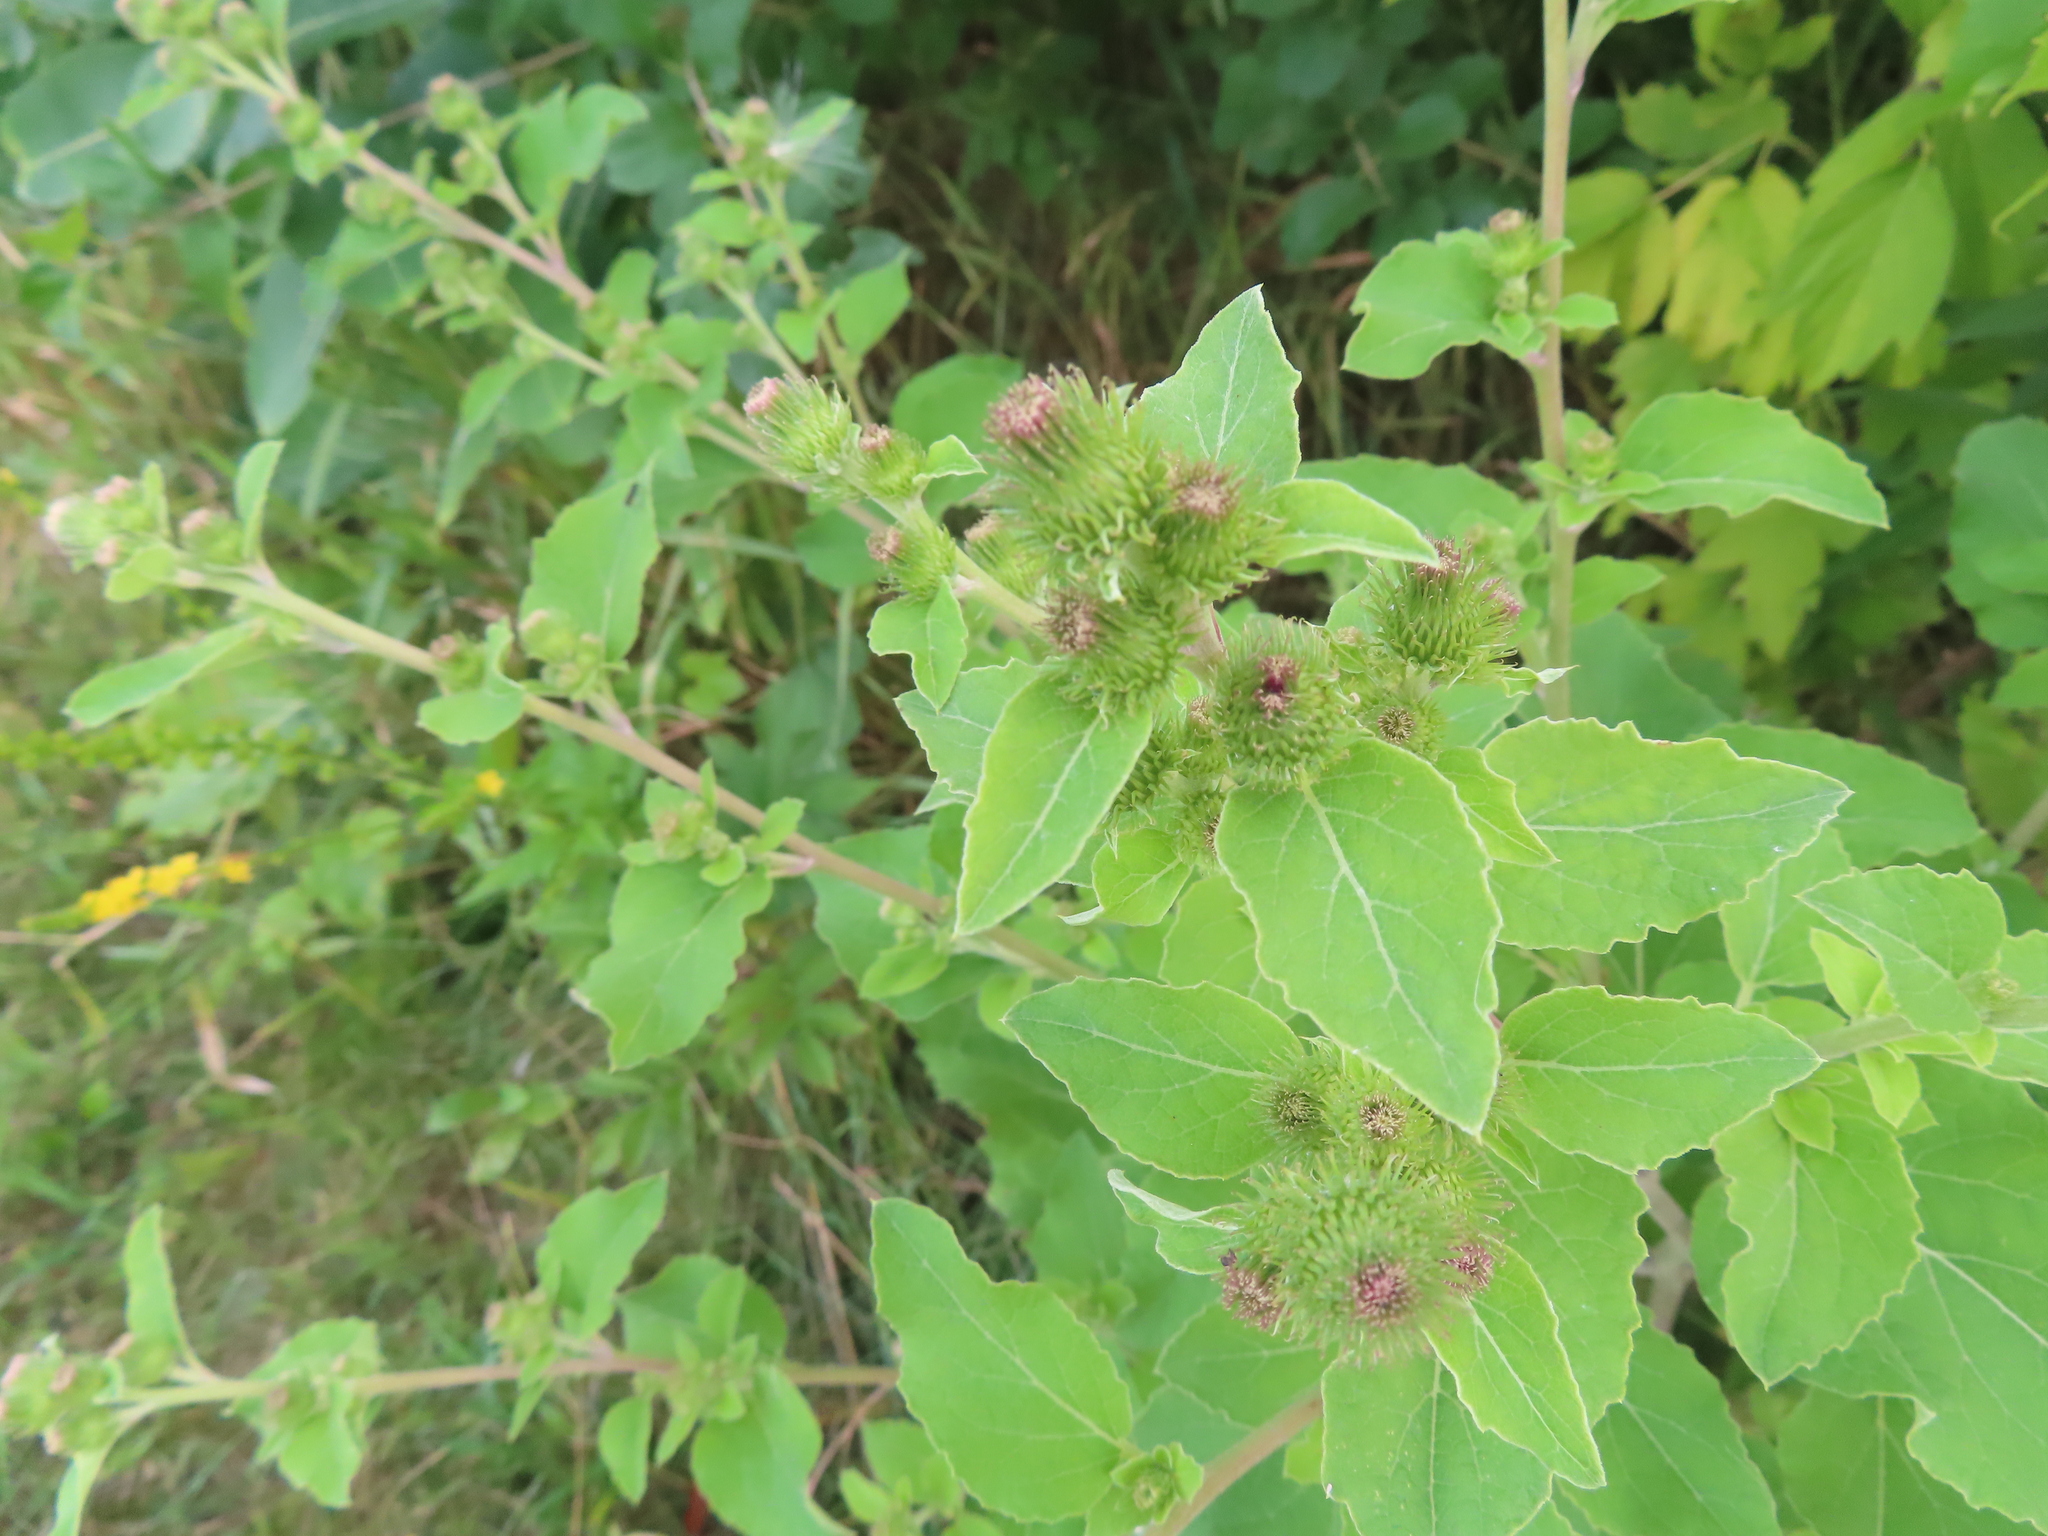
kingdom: Plantae
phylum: Tracheophyta
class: Magnoliopsida
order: Asterales
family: Asteraceae
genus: Arctium
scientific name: Arctium minus
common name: Lesser burdock
